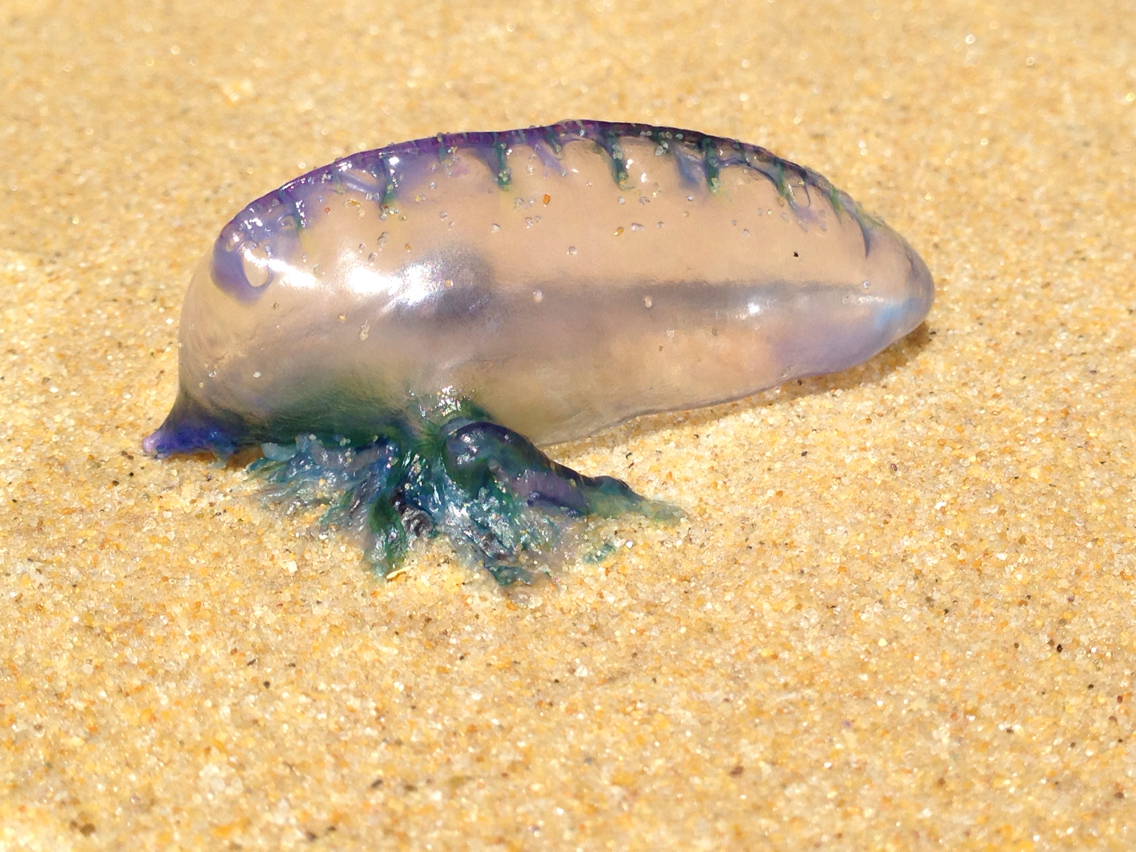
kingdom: Animalia
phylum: Cnidaria
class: Hydrozoa
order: Siphonophorae
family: Physaliidae
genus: Physalia
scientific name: Physalia physalis
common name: Portuguese man-of-war
